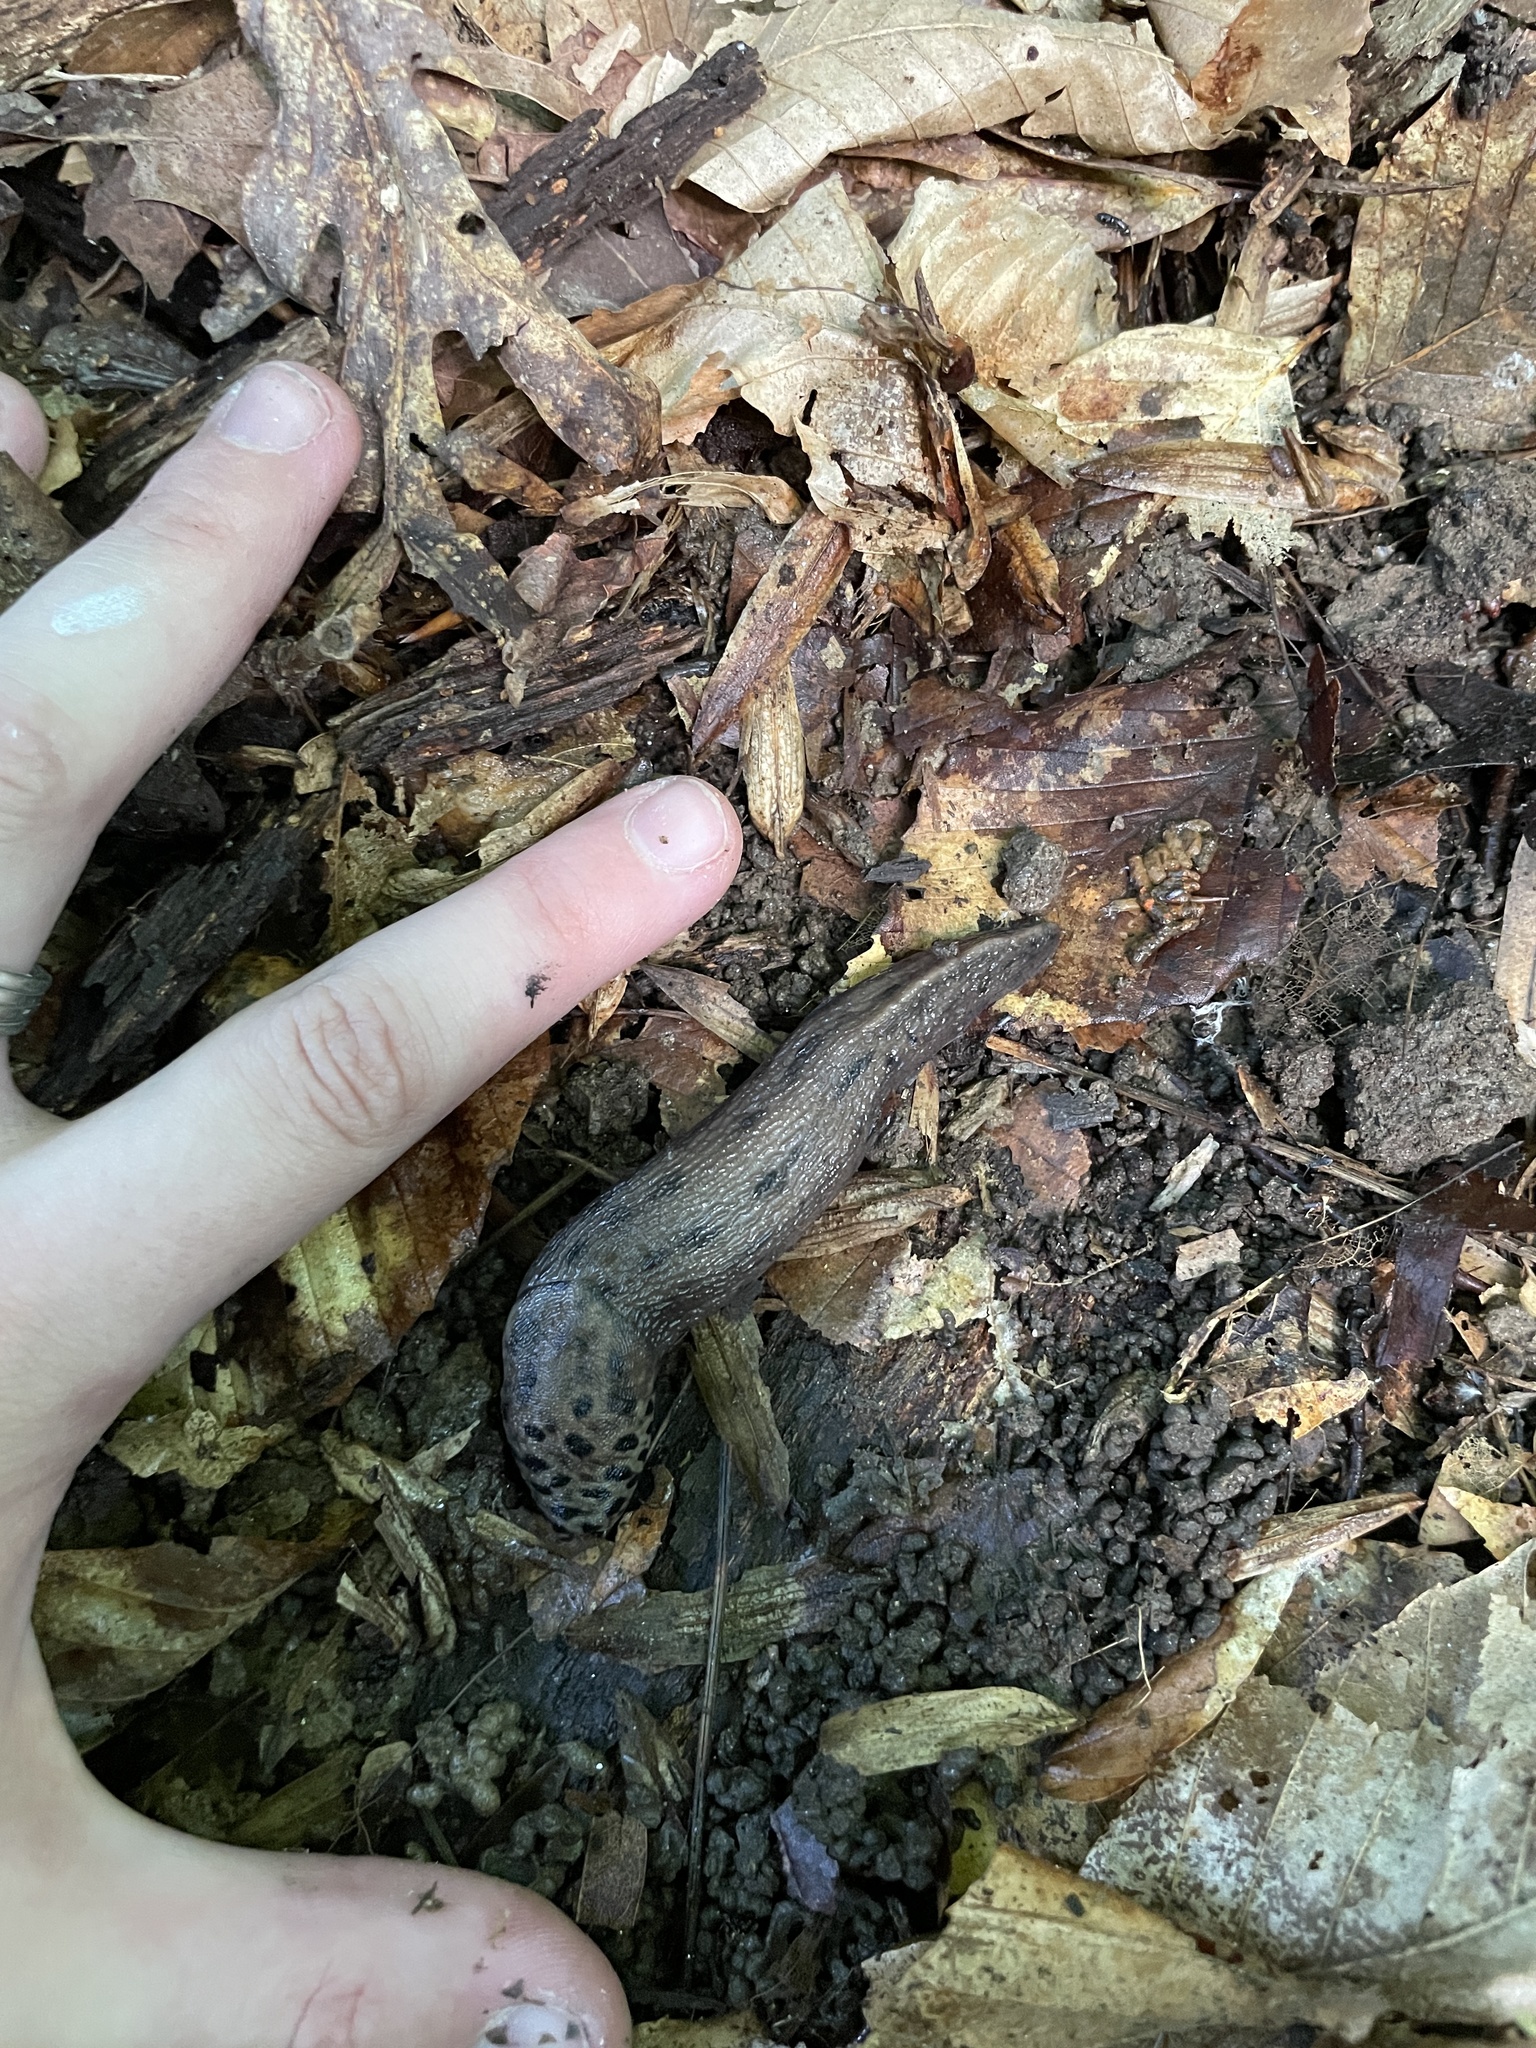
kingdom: Animalia
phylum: Mollusca
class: Gastropoda
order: Stylommatophora
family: Limacidae
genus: Limax
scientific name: Limax maximus
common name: Great grey slug
